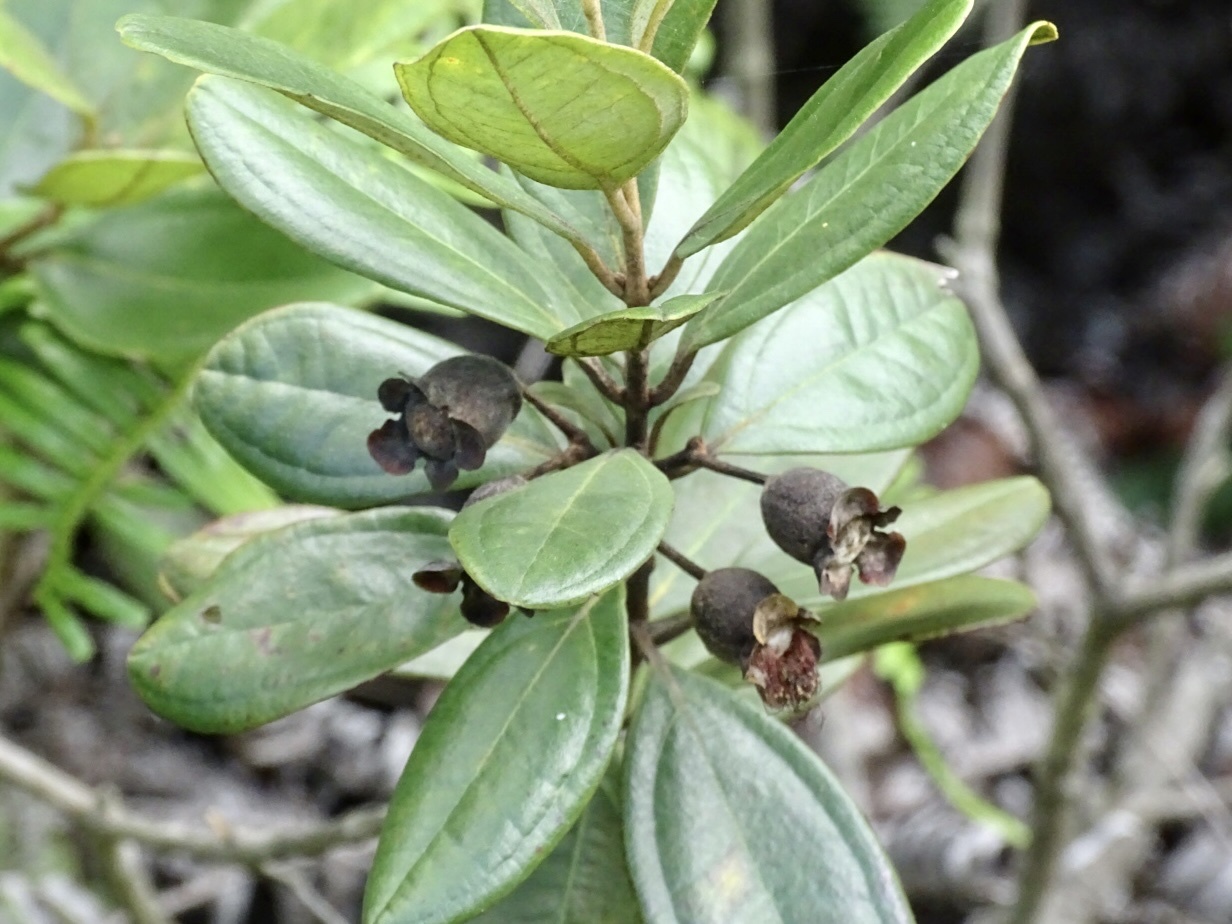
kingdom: Plantae
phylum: Tracheophyta
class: Magnoliopsida
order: Myrtales
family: Myrtaceae
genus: Rhodomyrtus
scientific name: Rhodomyrtus tomentosa
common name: Rose myrtle
